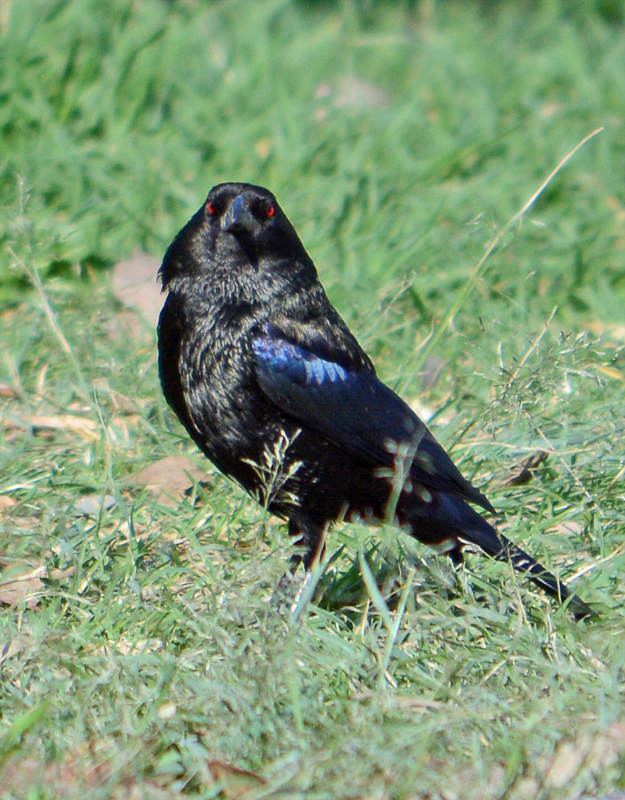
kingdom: Animalia
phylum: Chordata
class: Aves
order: Passeriformes
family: Icteridae
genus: Molothrus
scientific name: Molothrus aeneus
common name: Bronzed cowbird
